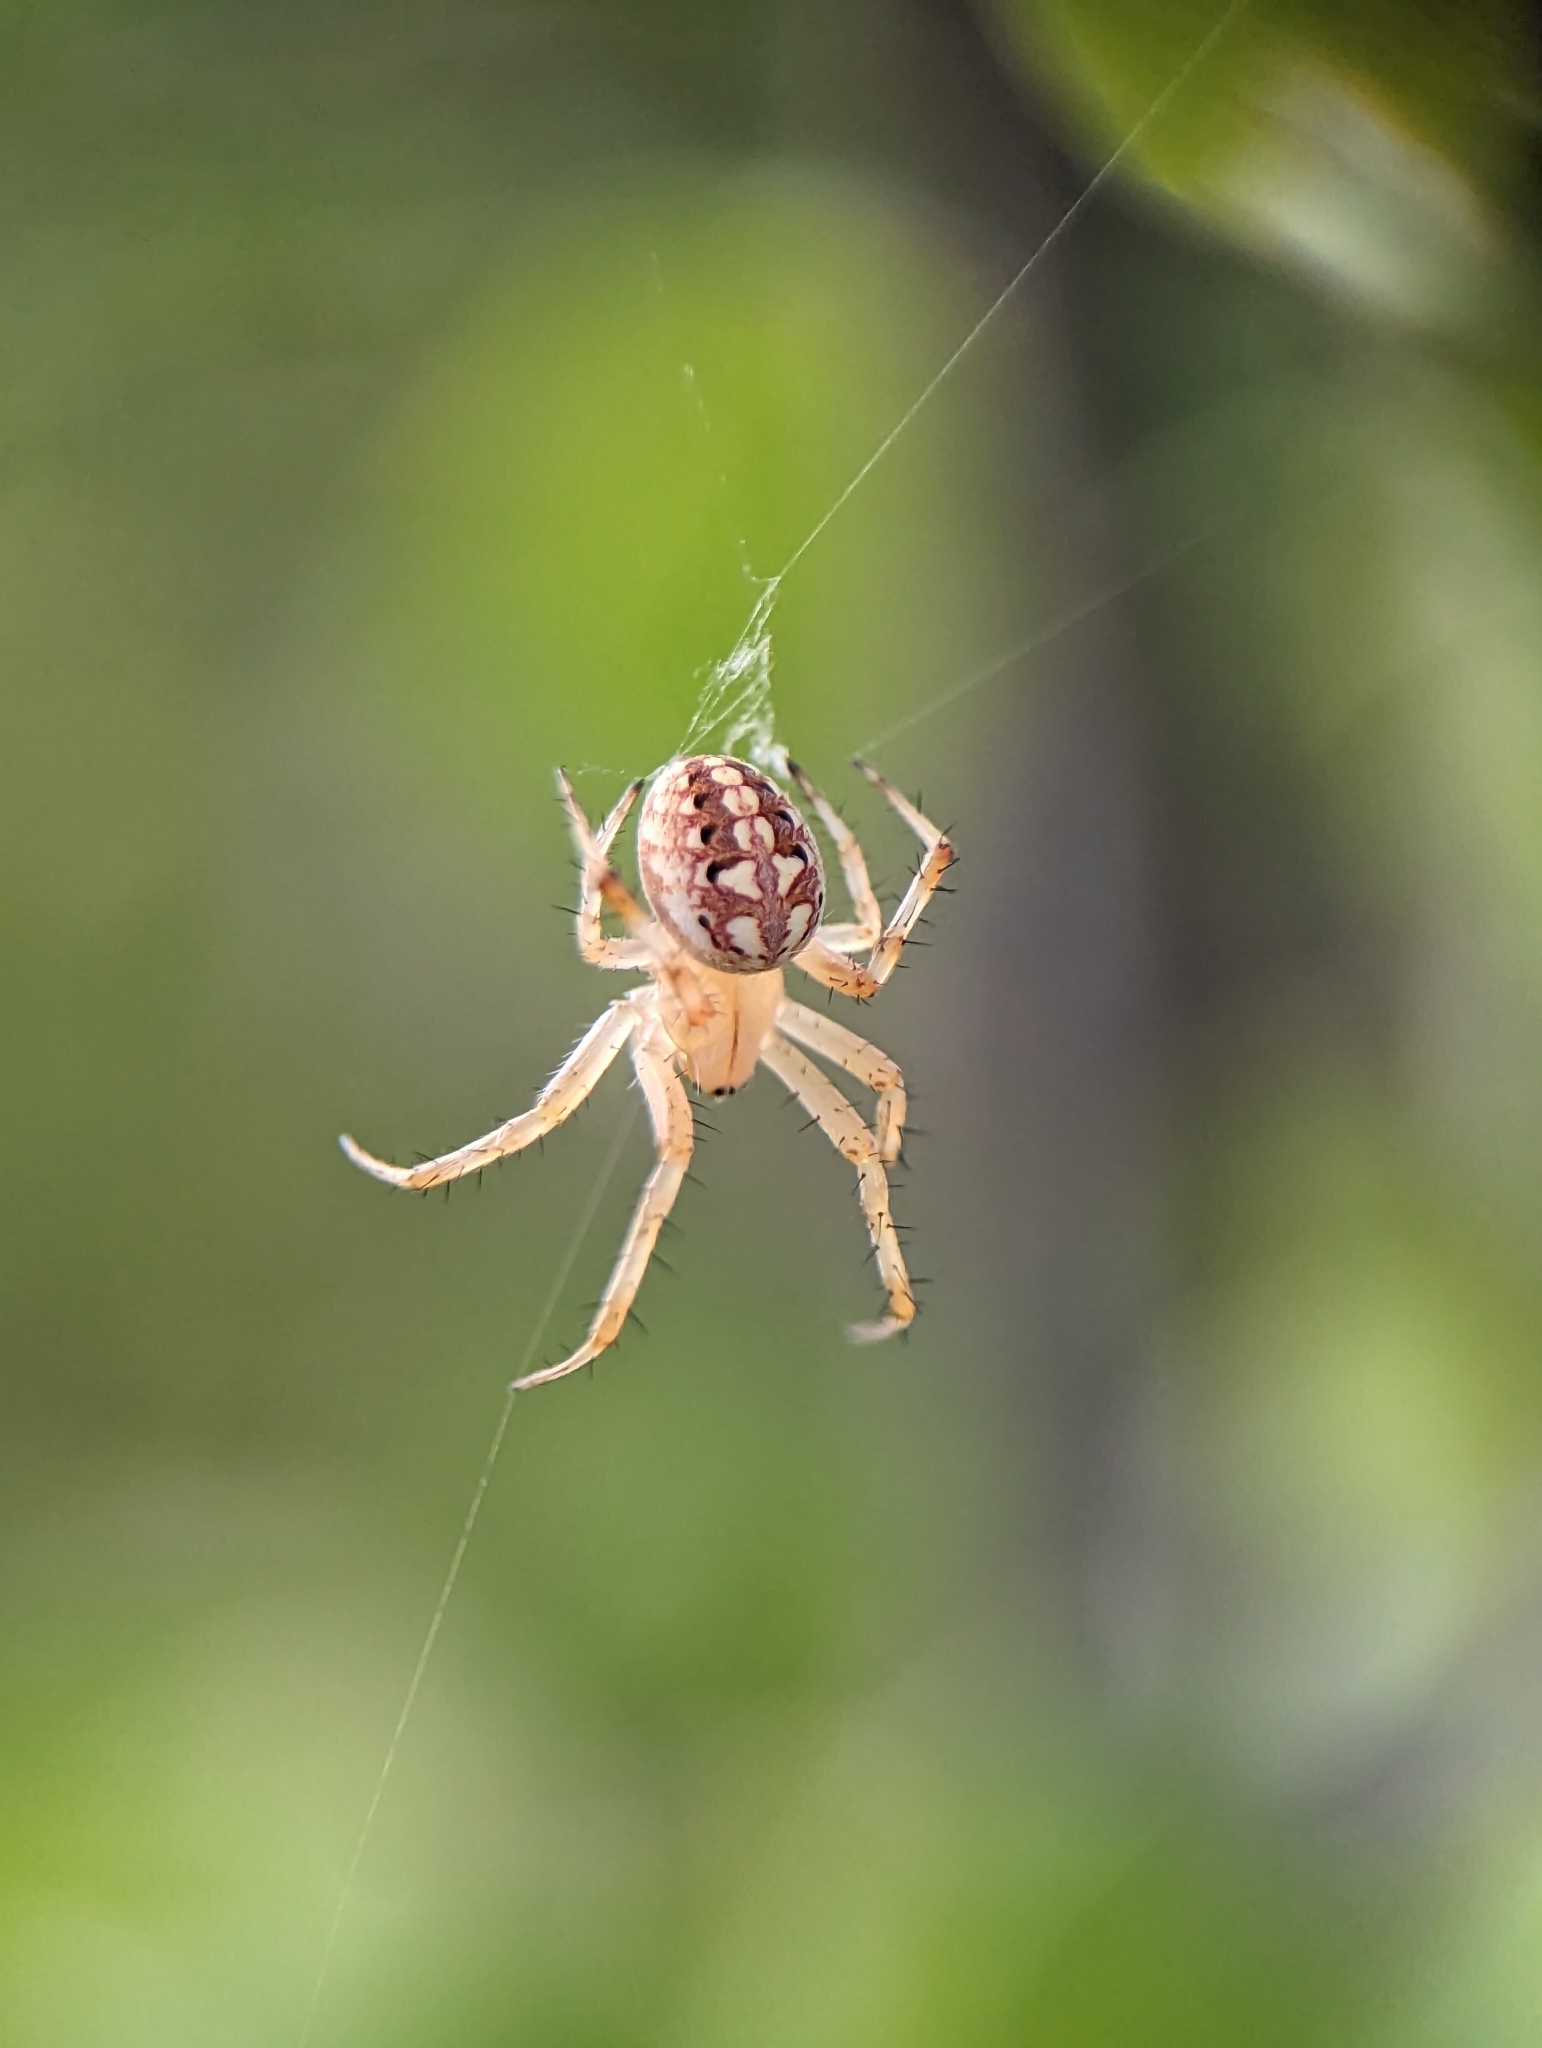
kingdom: Animalia
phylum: Arthropoda
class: Arachnida
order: Araneae
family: Araneidae
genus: Neoscona
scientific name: Neoscona oaxacensis
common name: Orb weavers
